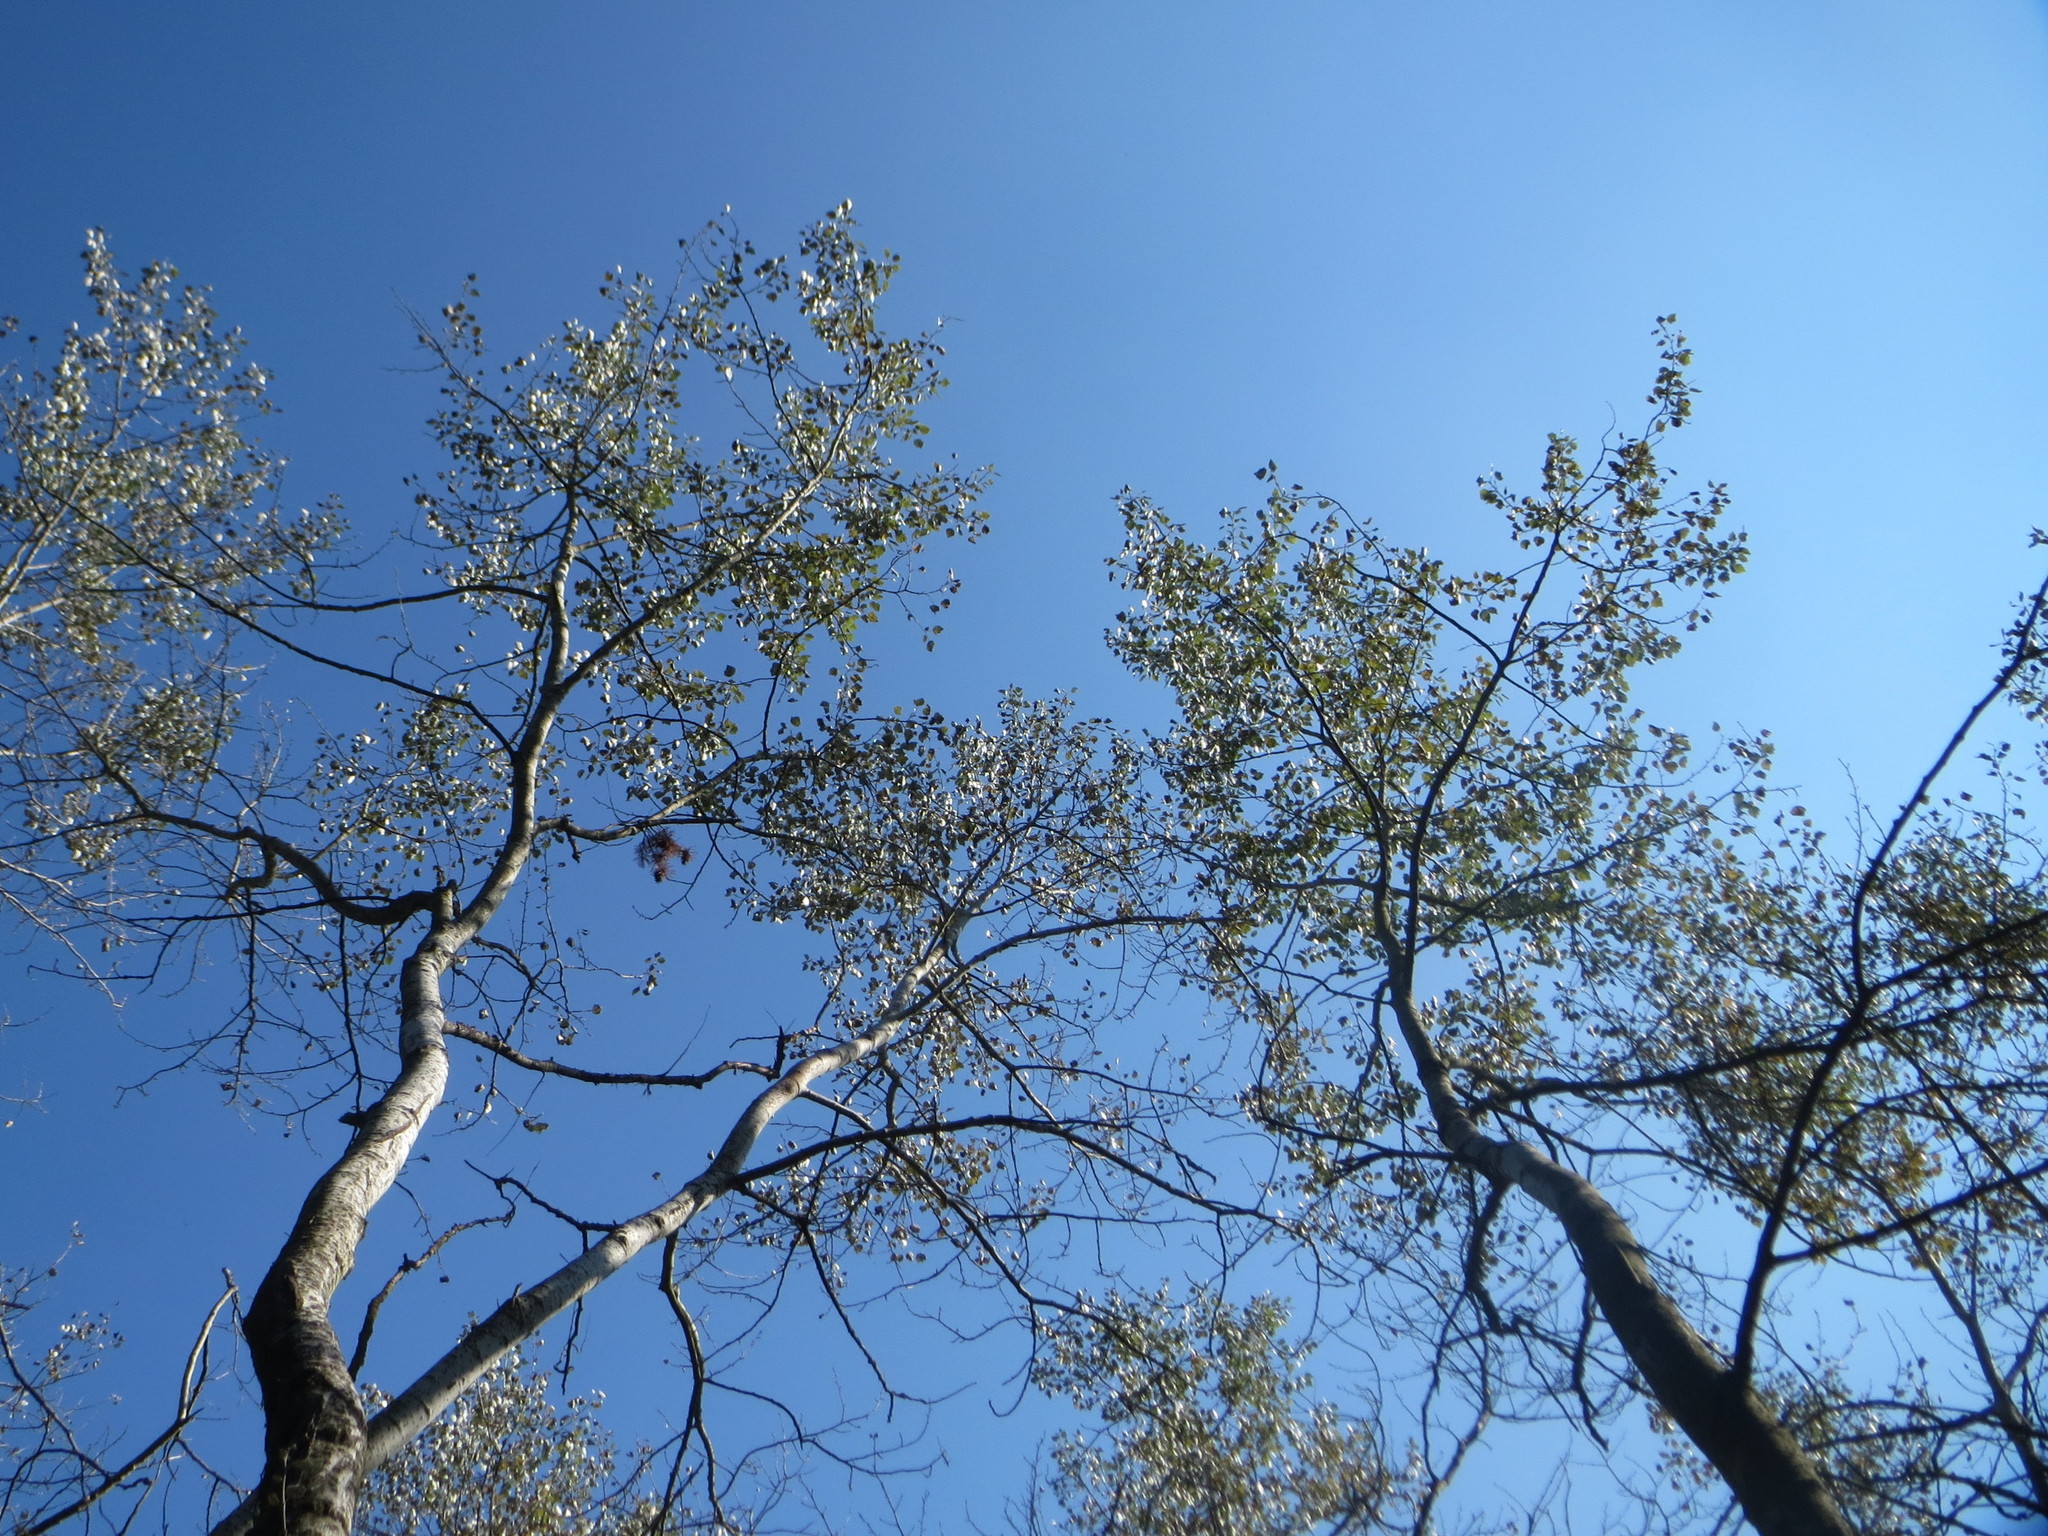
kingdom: Plantae
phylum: Tracheophyta
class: Magnoliopsida
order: Malpighiales
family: Salicaceae
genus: Populus
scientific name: Populus tremula
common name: European aspen
